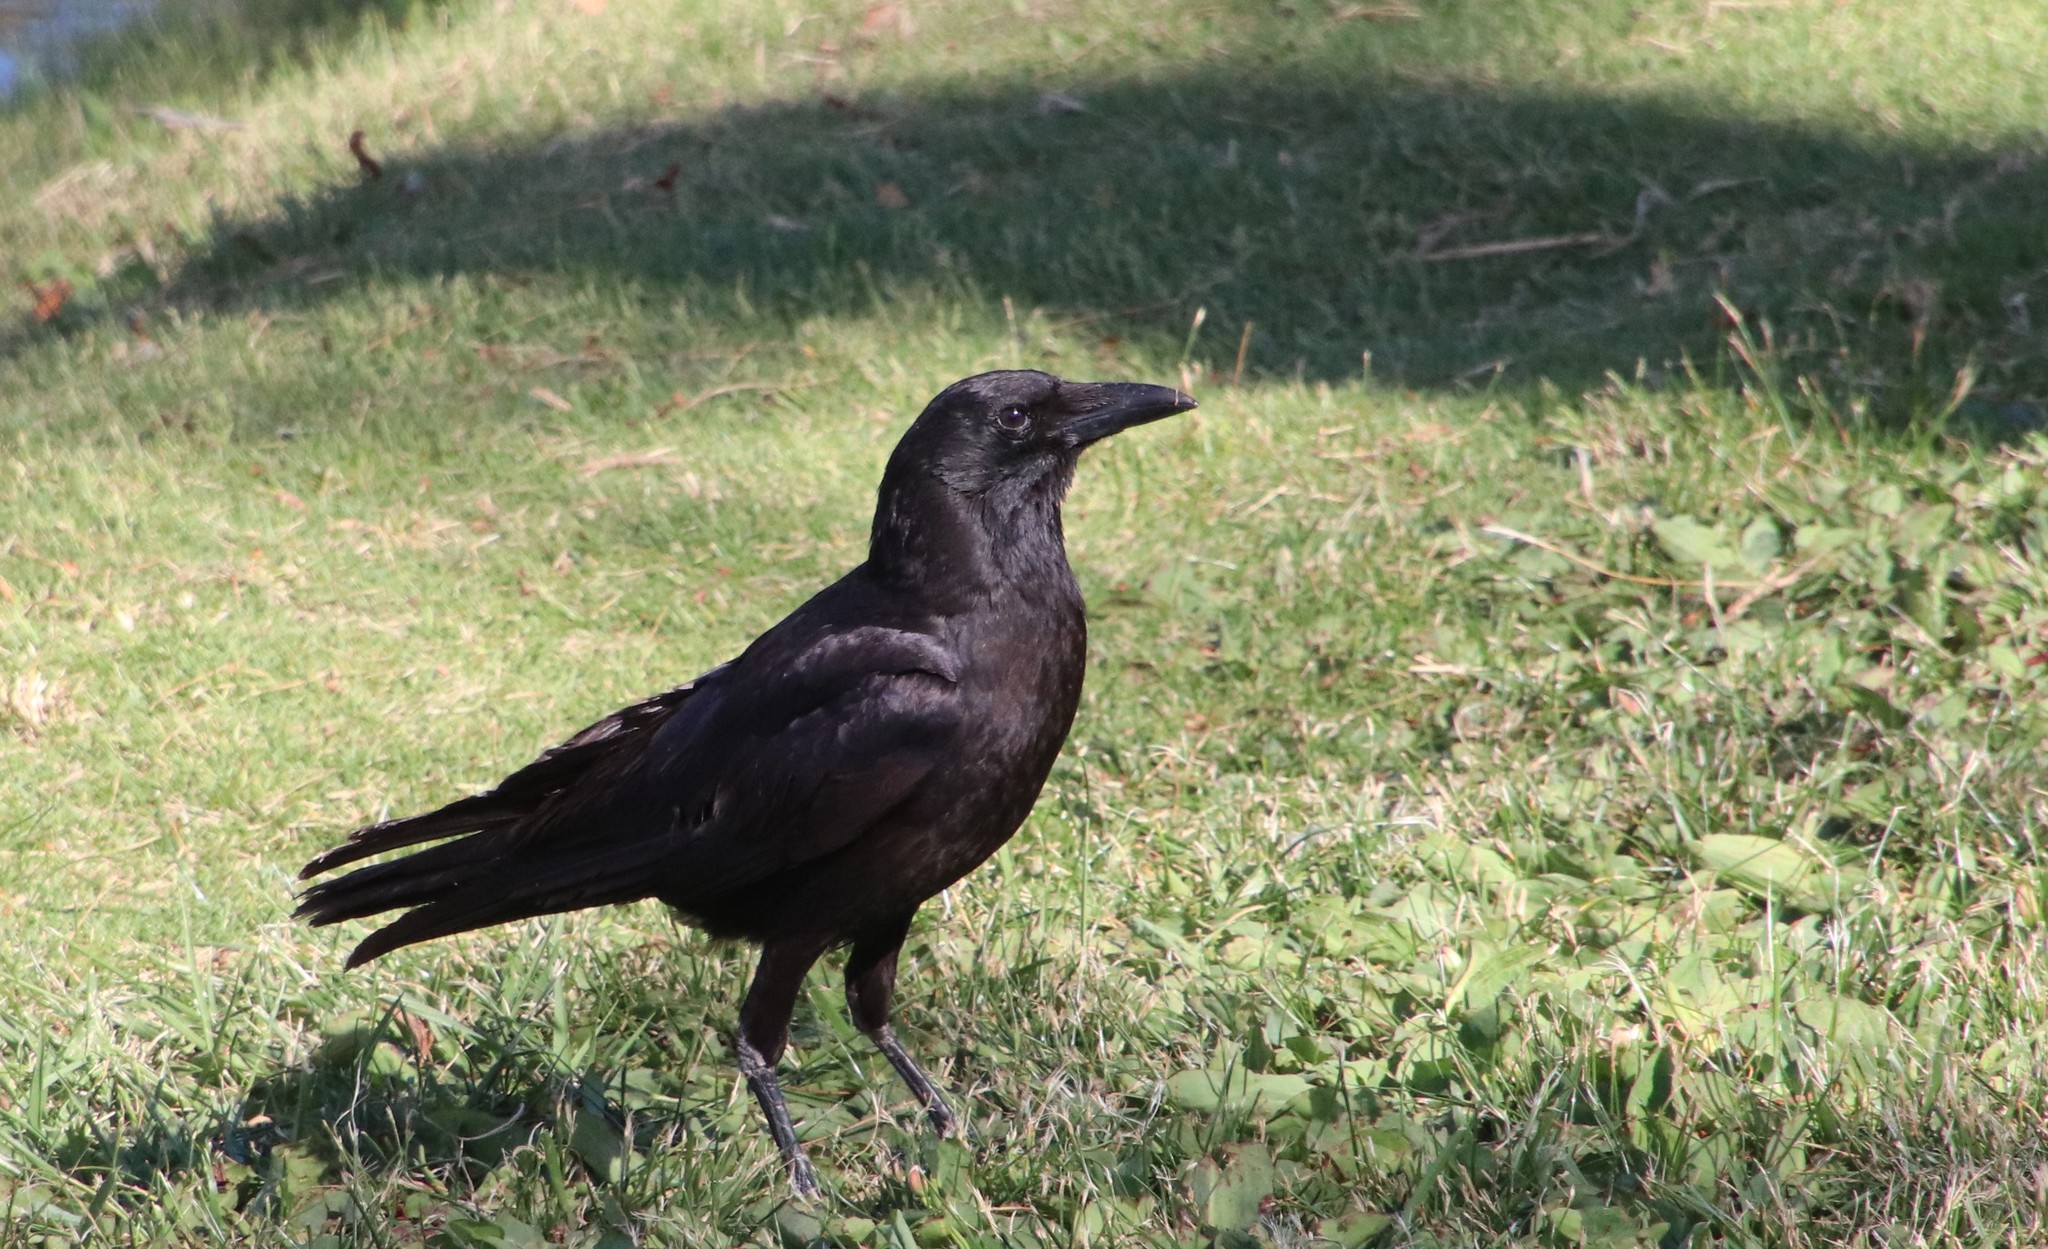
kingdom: Animalia
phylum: Chordata
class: Aves
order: Passeriformes
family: Corvidae
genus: Corvus
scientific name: Corvus brachyrhynchos
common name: American crow
